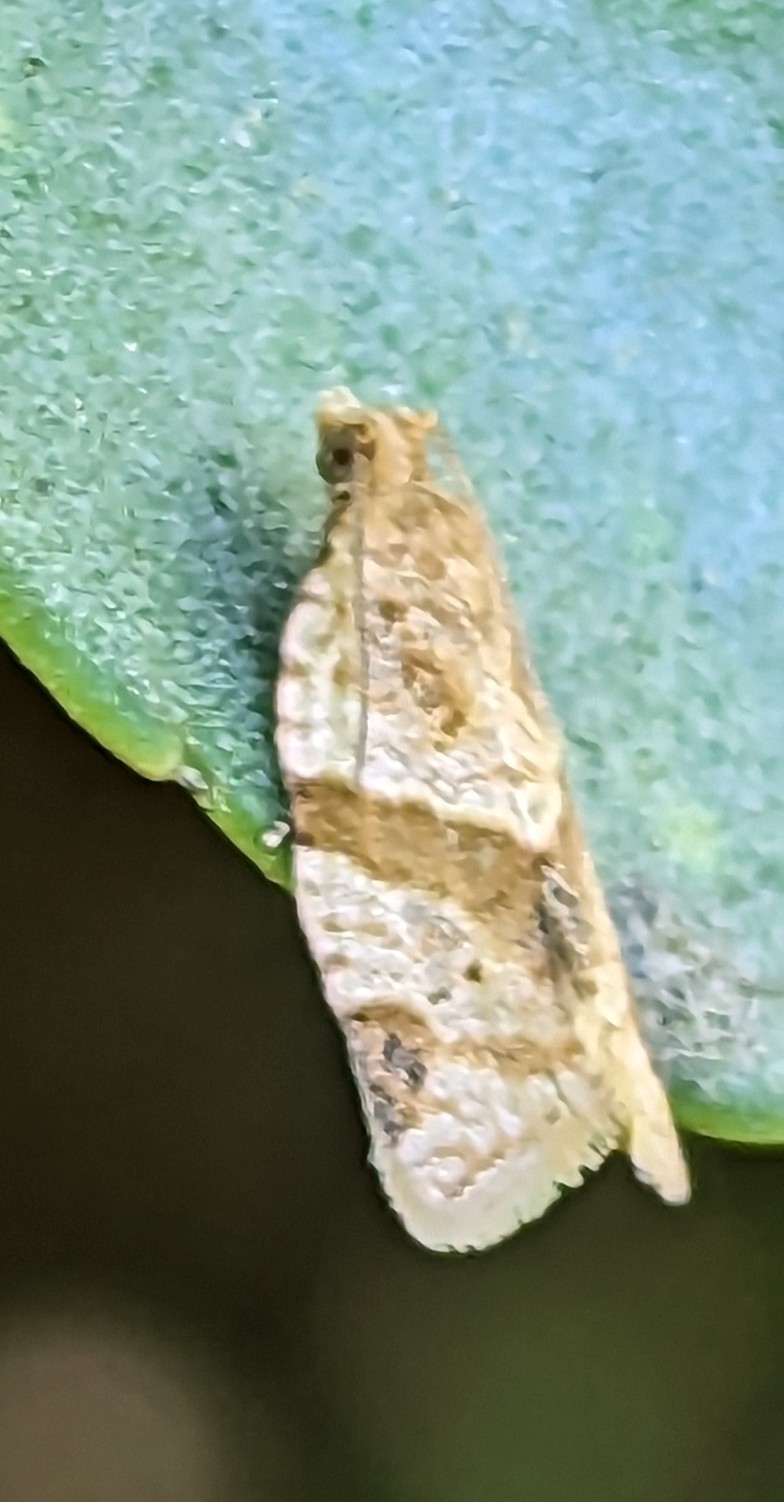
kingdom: Animalia
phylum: Arthropoda
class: Insecta
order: Lepidoptera
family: Tortricidae
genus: Clepsis
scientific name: Clepsis peritana
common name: Garden tortrix
